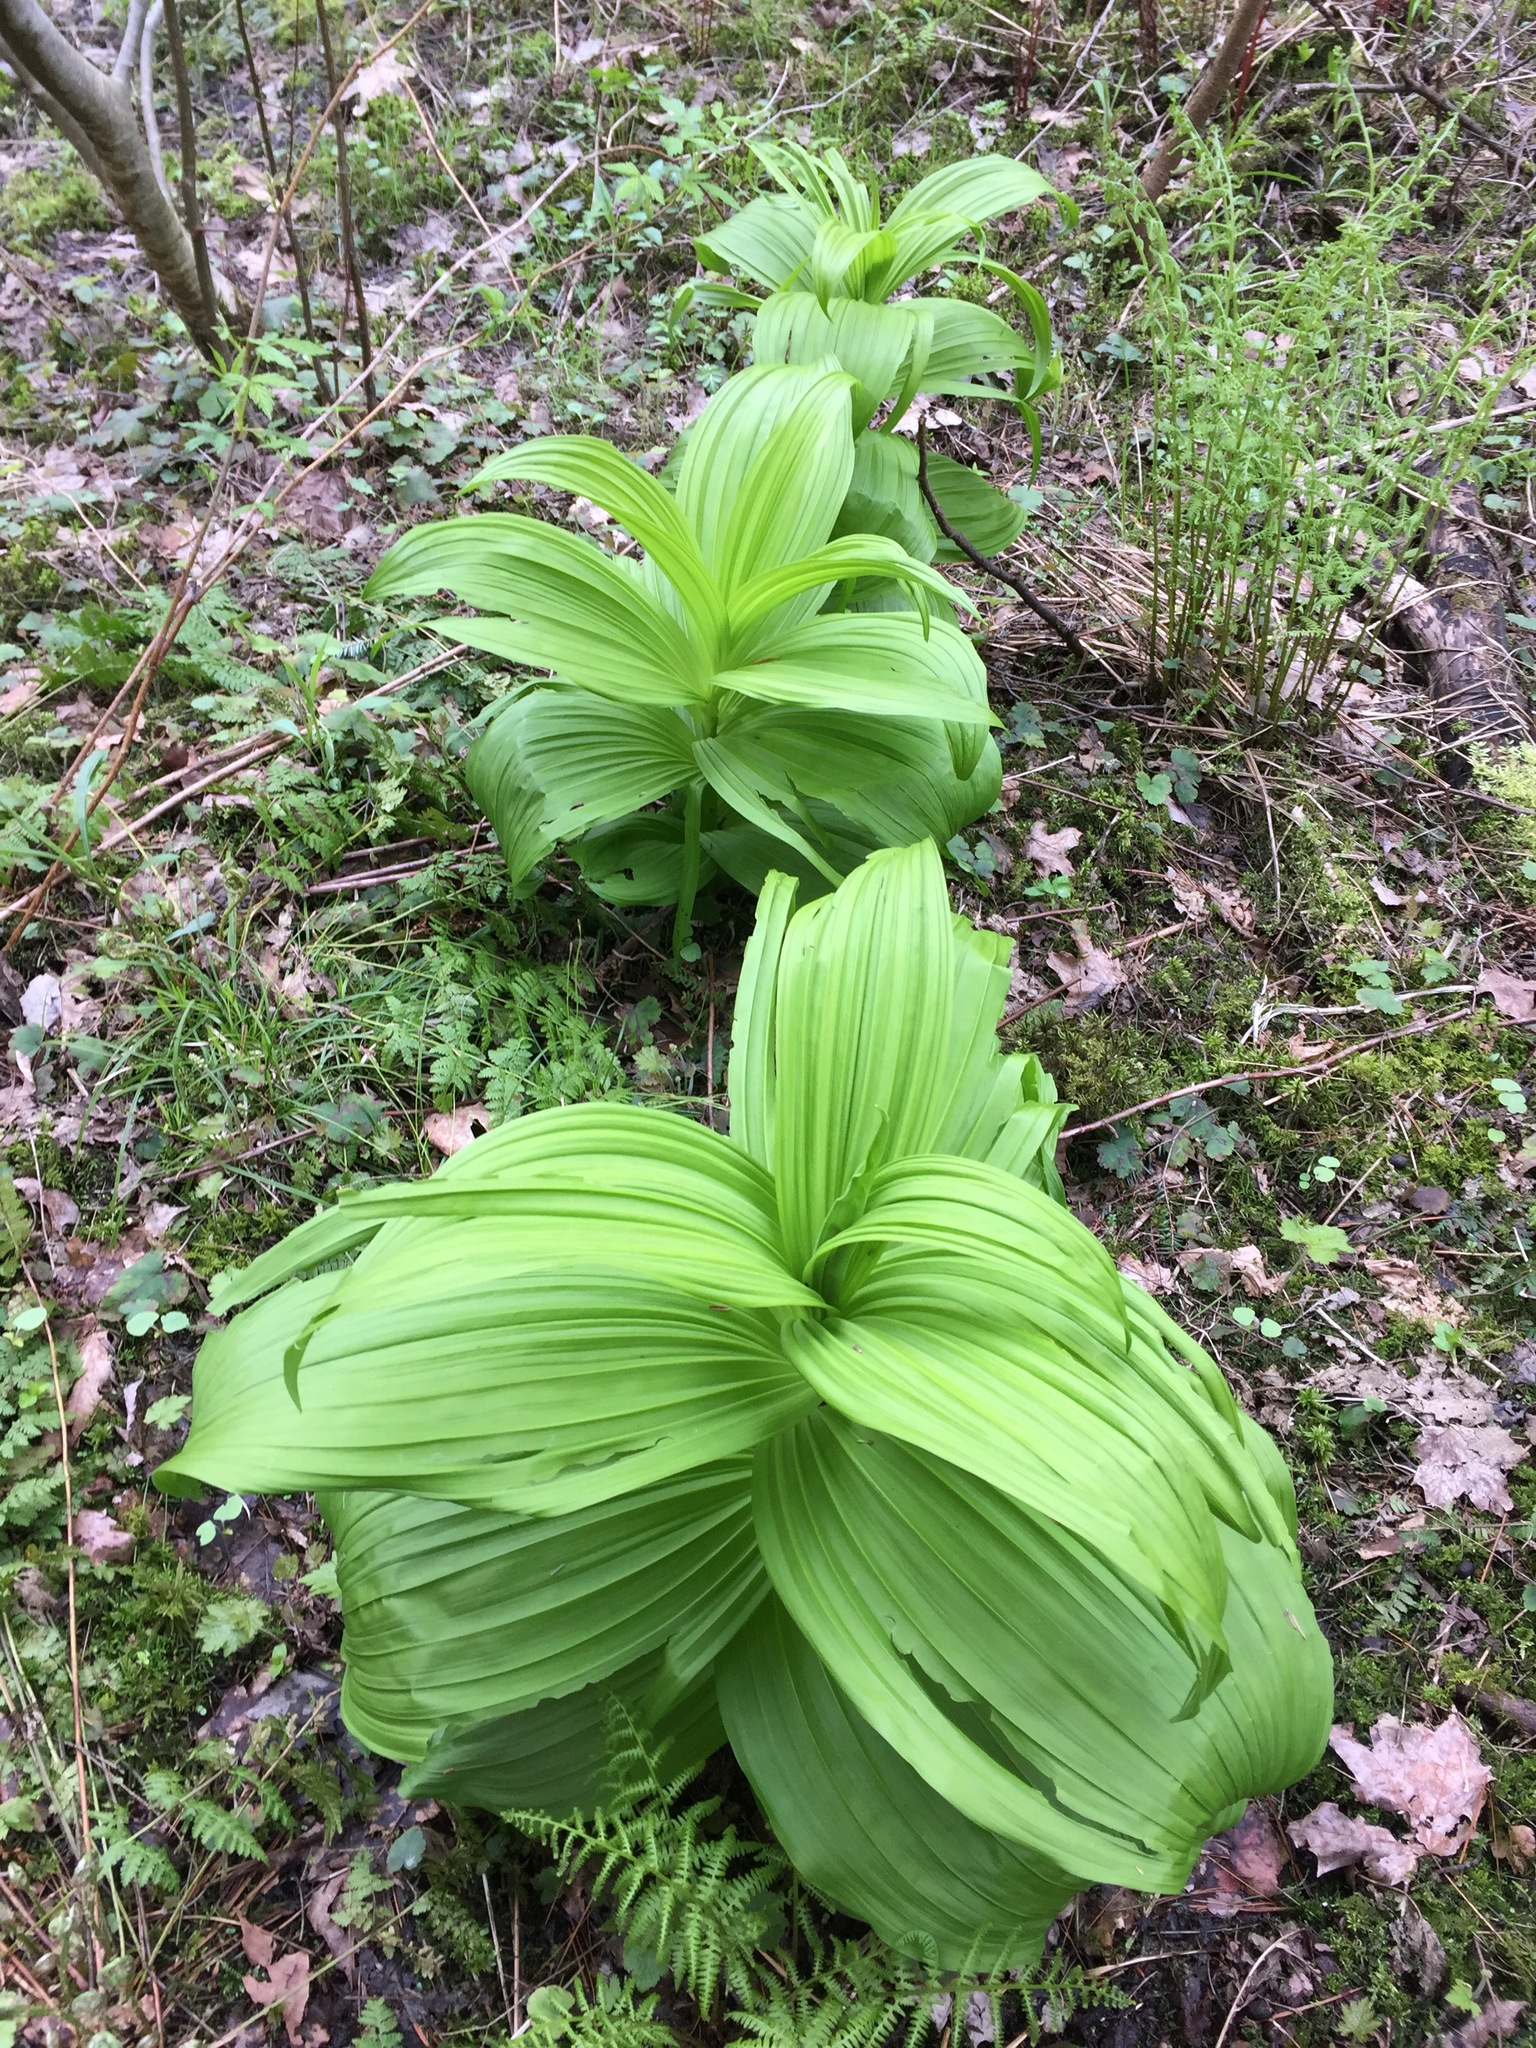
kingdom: Plantae
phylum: Tracheophyta
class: Liliopsida
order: Liliales
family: Melanthiaceae
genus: Veratrum
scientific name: Veratrum viride
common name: American false hellebore
